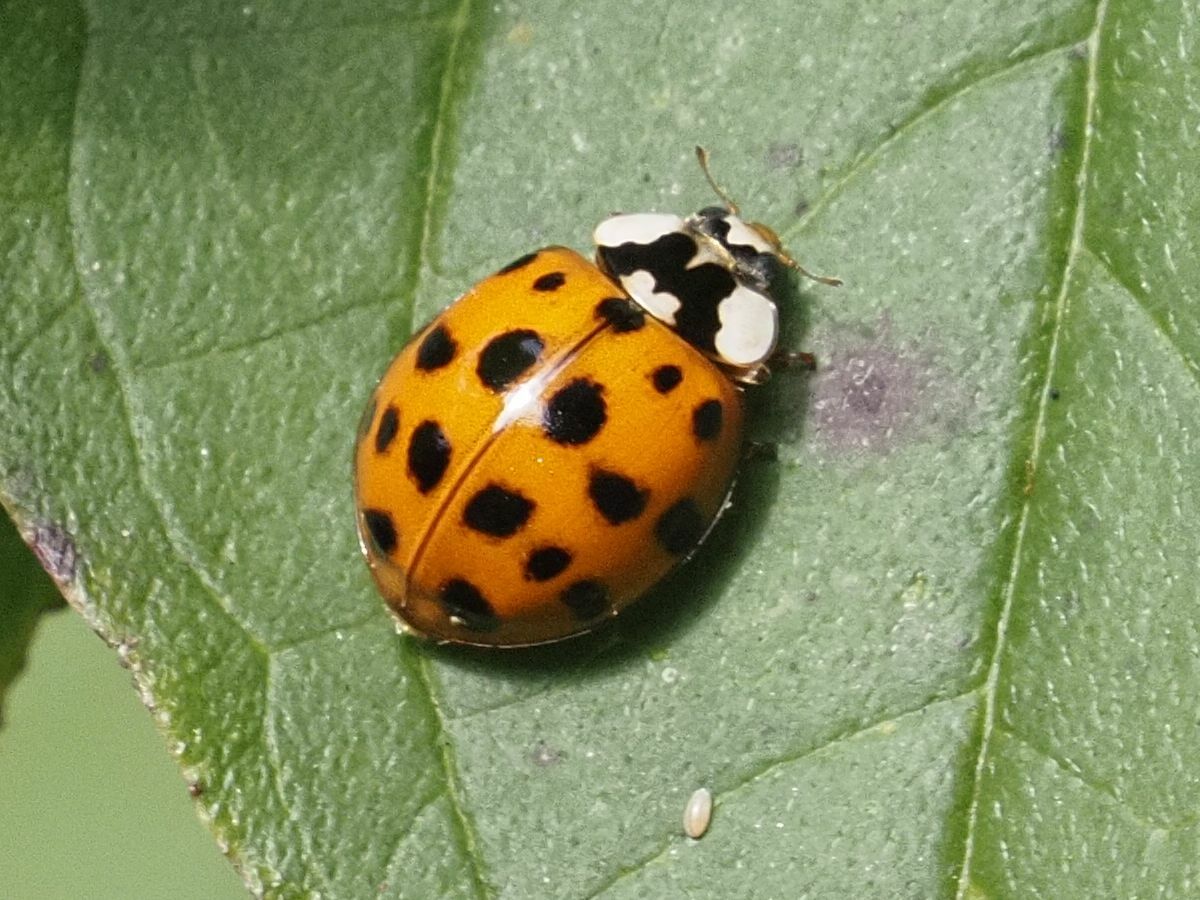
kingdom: Animalia
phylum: Arthropoda
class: Insecta
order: Coleoptera
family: Coccinellidae
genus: Harmonia
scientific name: Harmonia axyridis
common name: Harlequin ladybird
